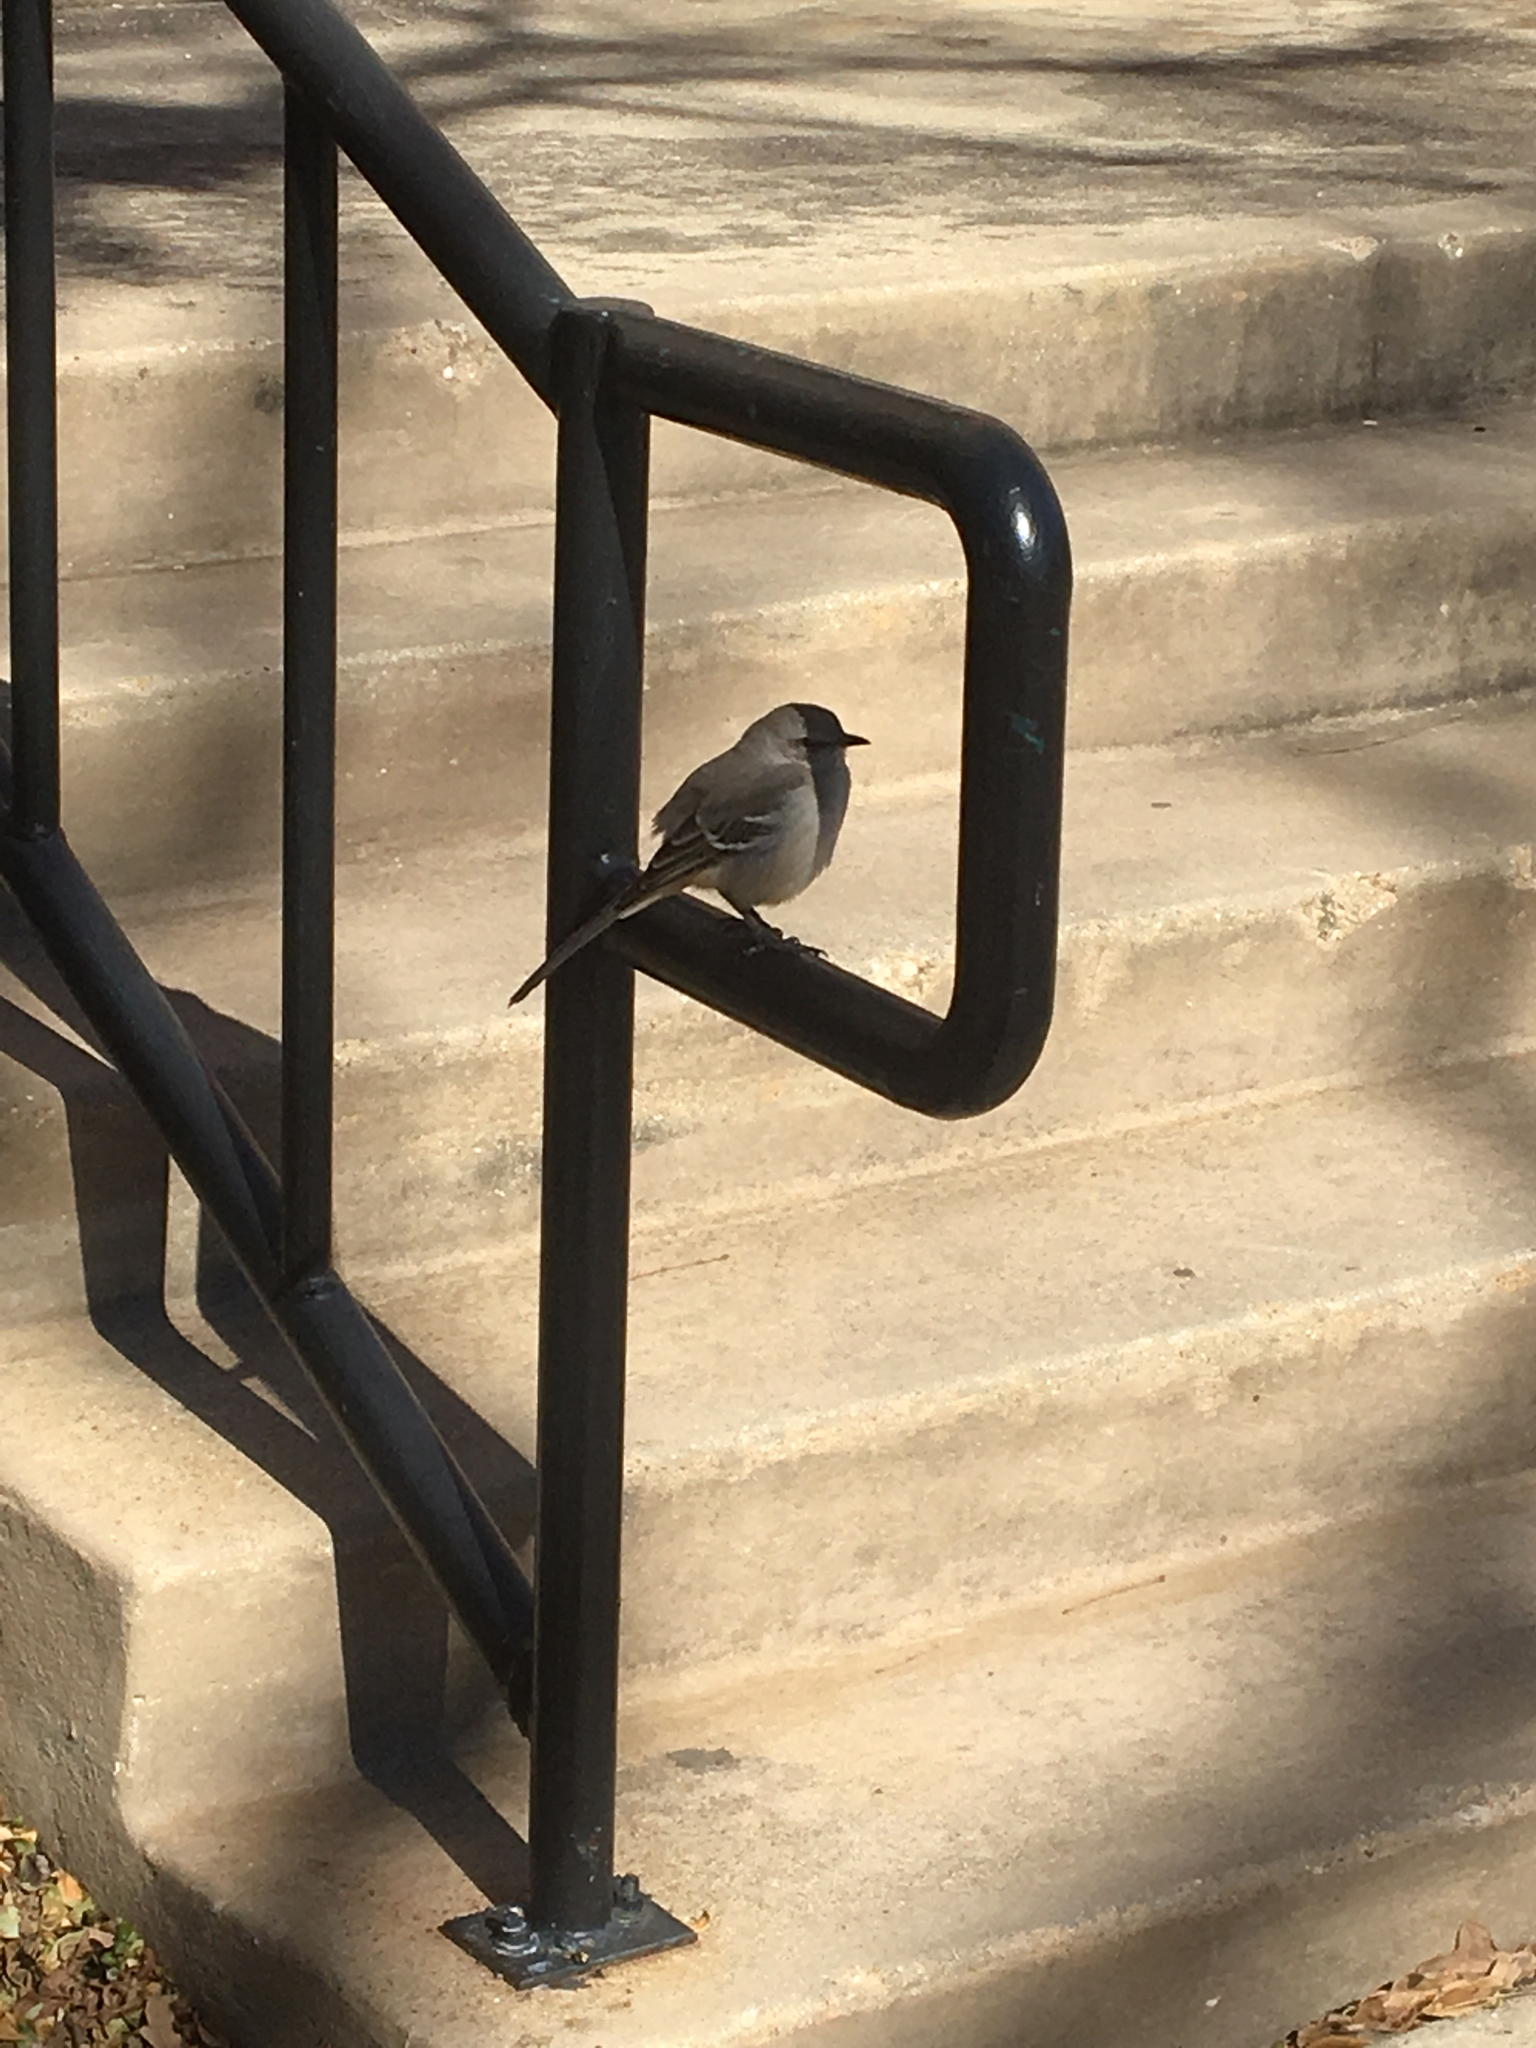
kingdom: Animalia
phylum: Chordata
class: Aves
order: Passeriformes
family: Mimidae
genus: Mimus
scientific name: Mimus polyglottos
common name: Northern mockingbird
